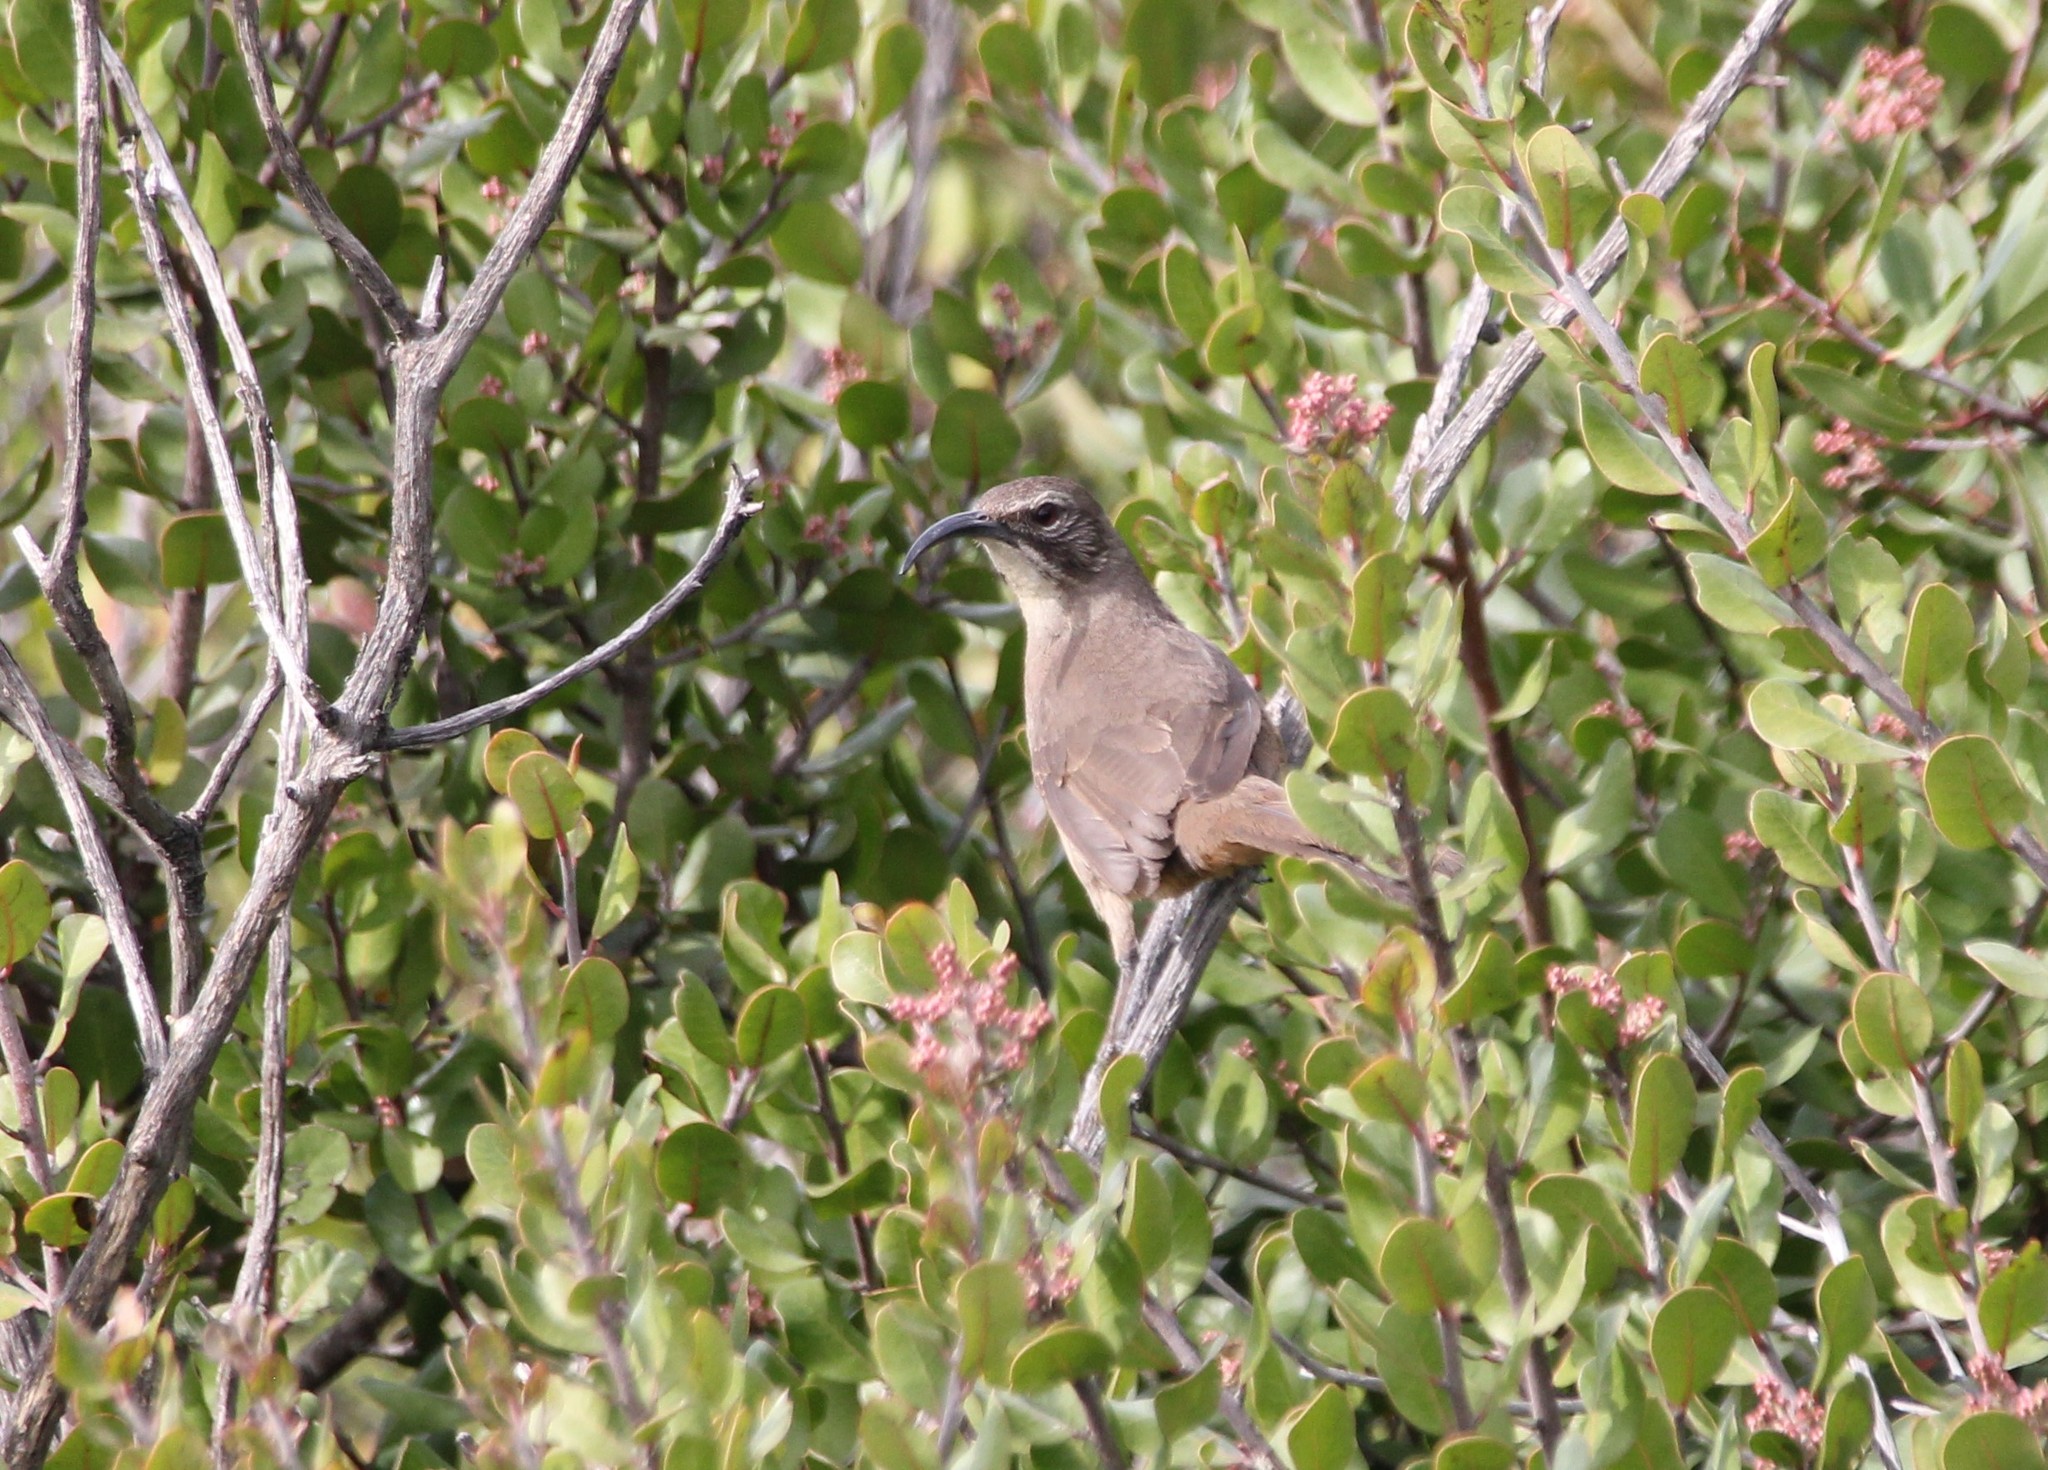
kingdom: Animalia
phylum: Chordata
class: Aves
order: Passeriformes
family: Mimidae
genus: Toxostoma
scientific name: Toxostoma redivivum
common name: California thrasher
